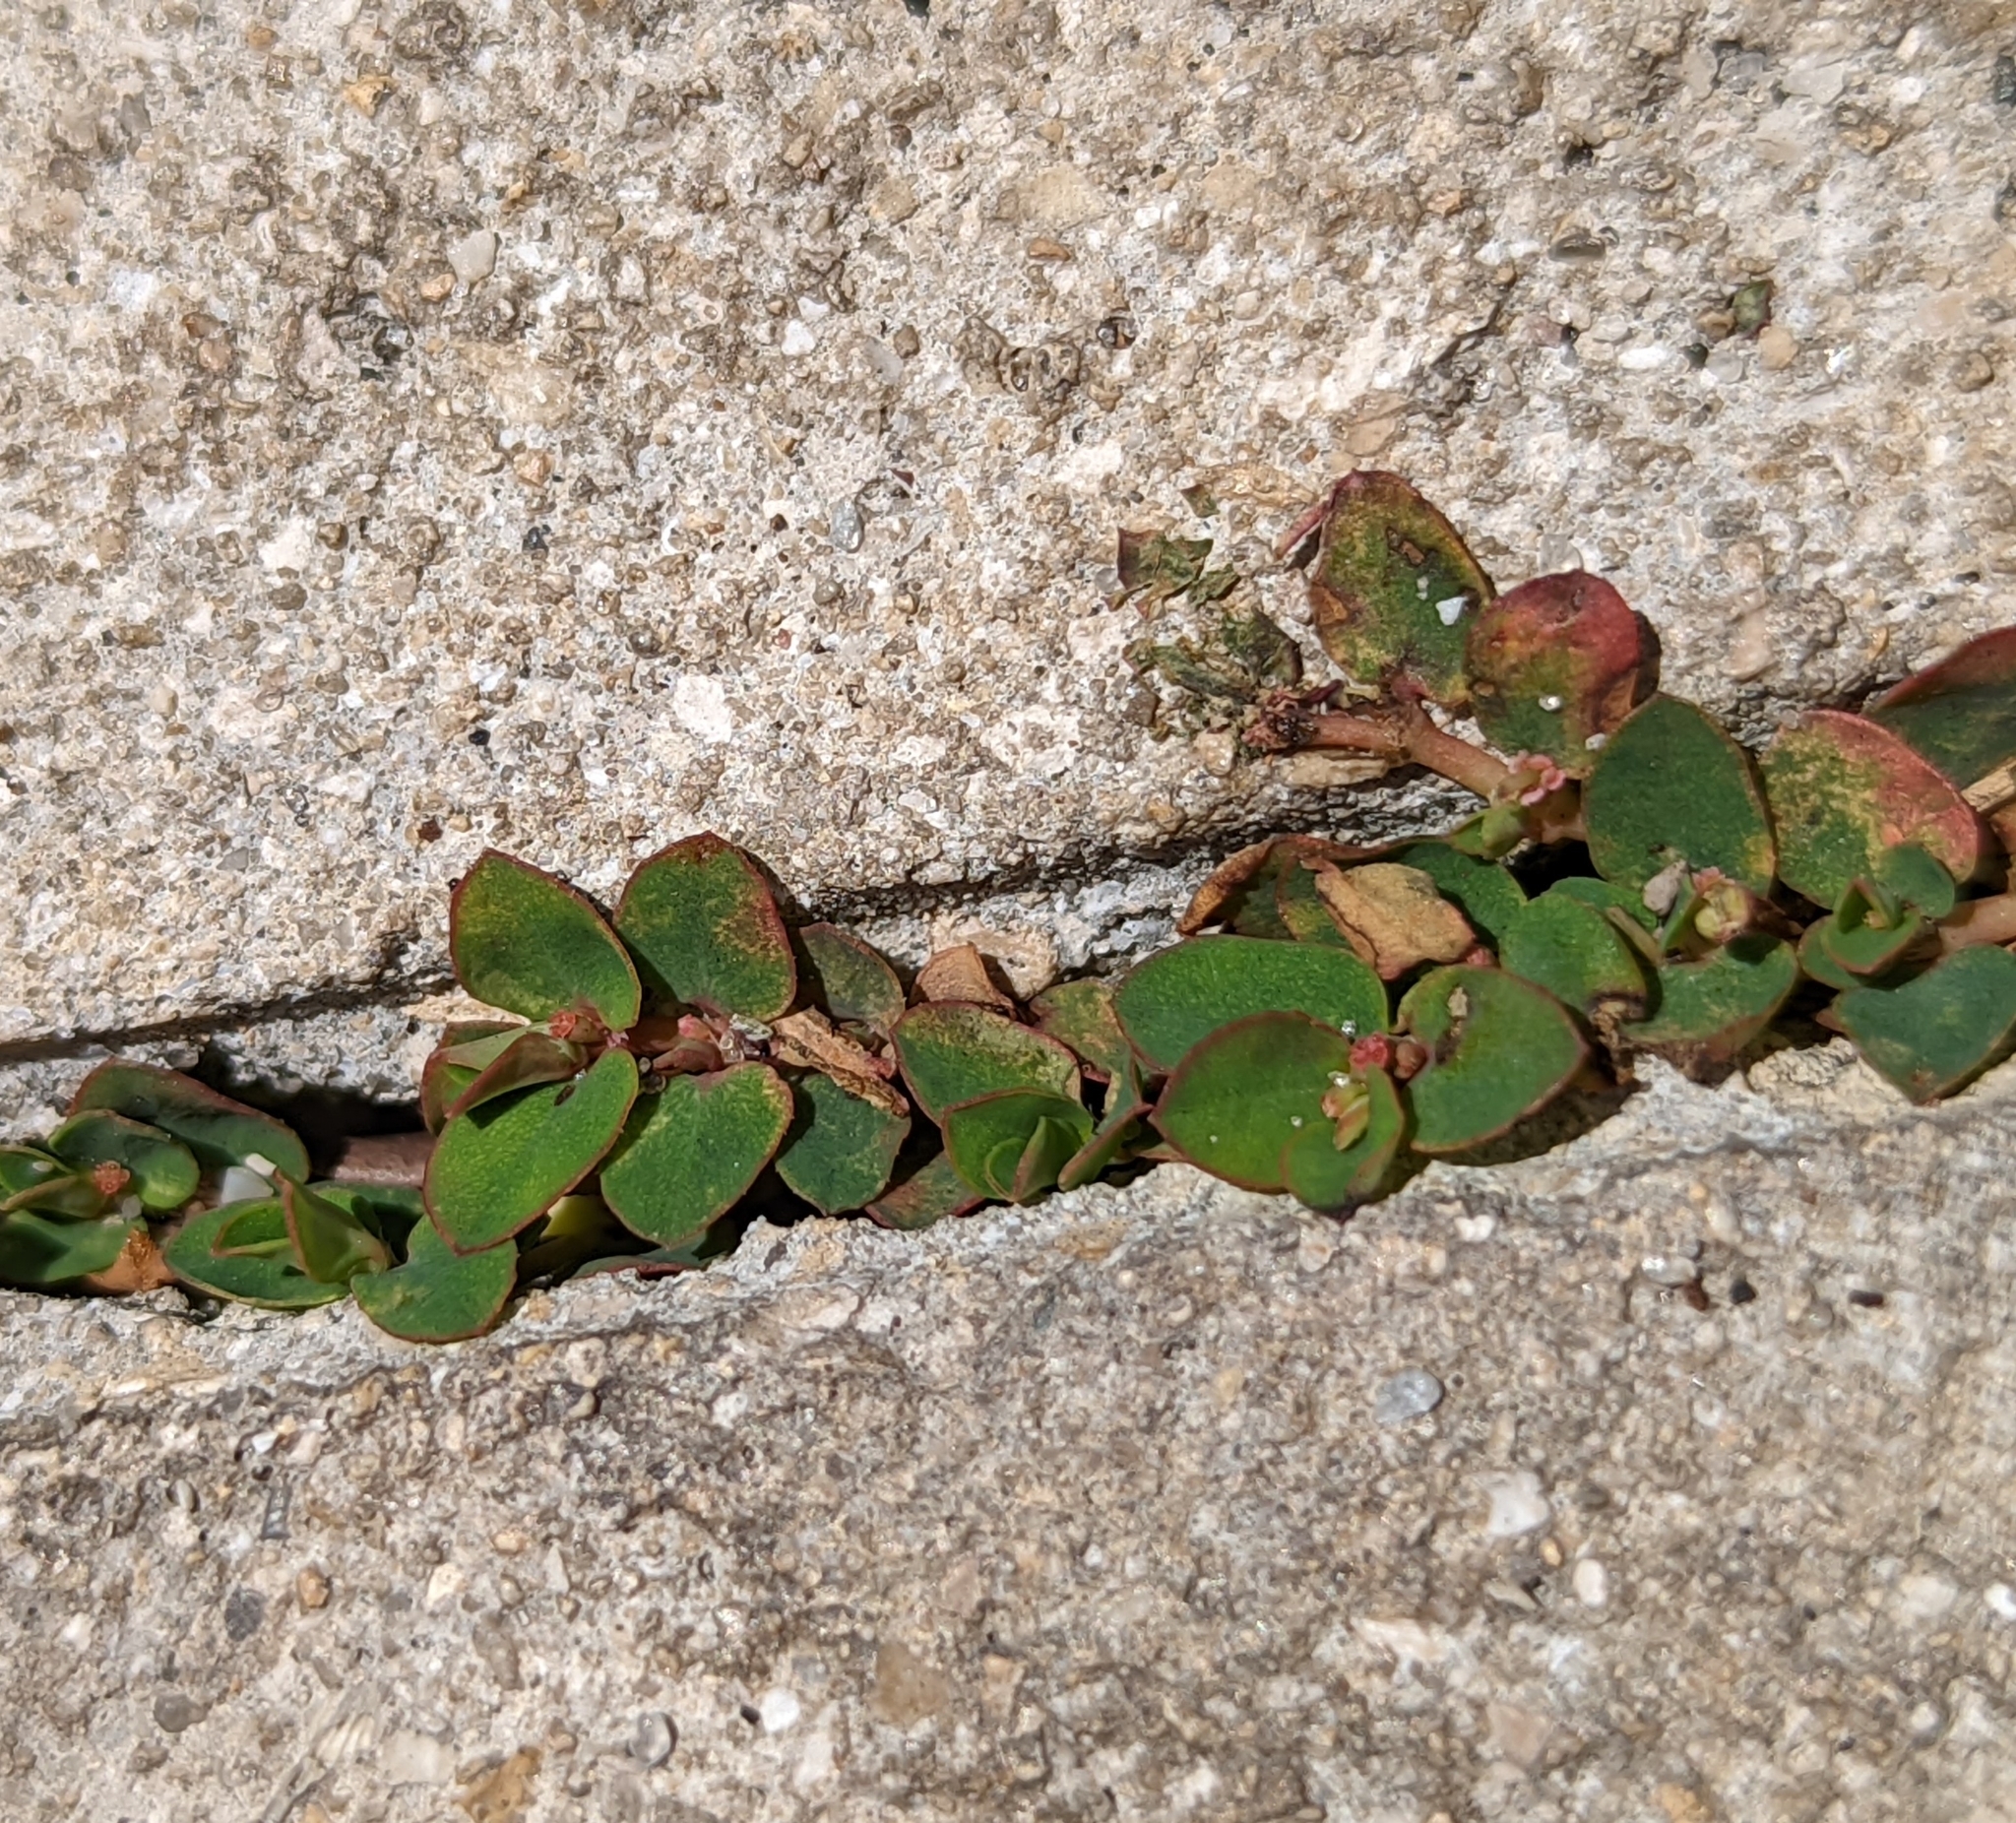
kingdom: Plantae
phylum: Tracheophyta
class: Magnoliopsida
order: Malpighiales
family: Euphorbiaceae
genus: Euphorbia
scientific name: Euphorbia blodgettii
